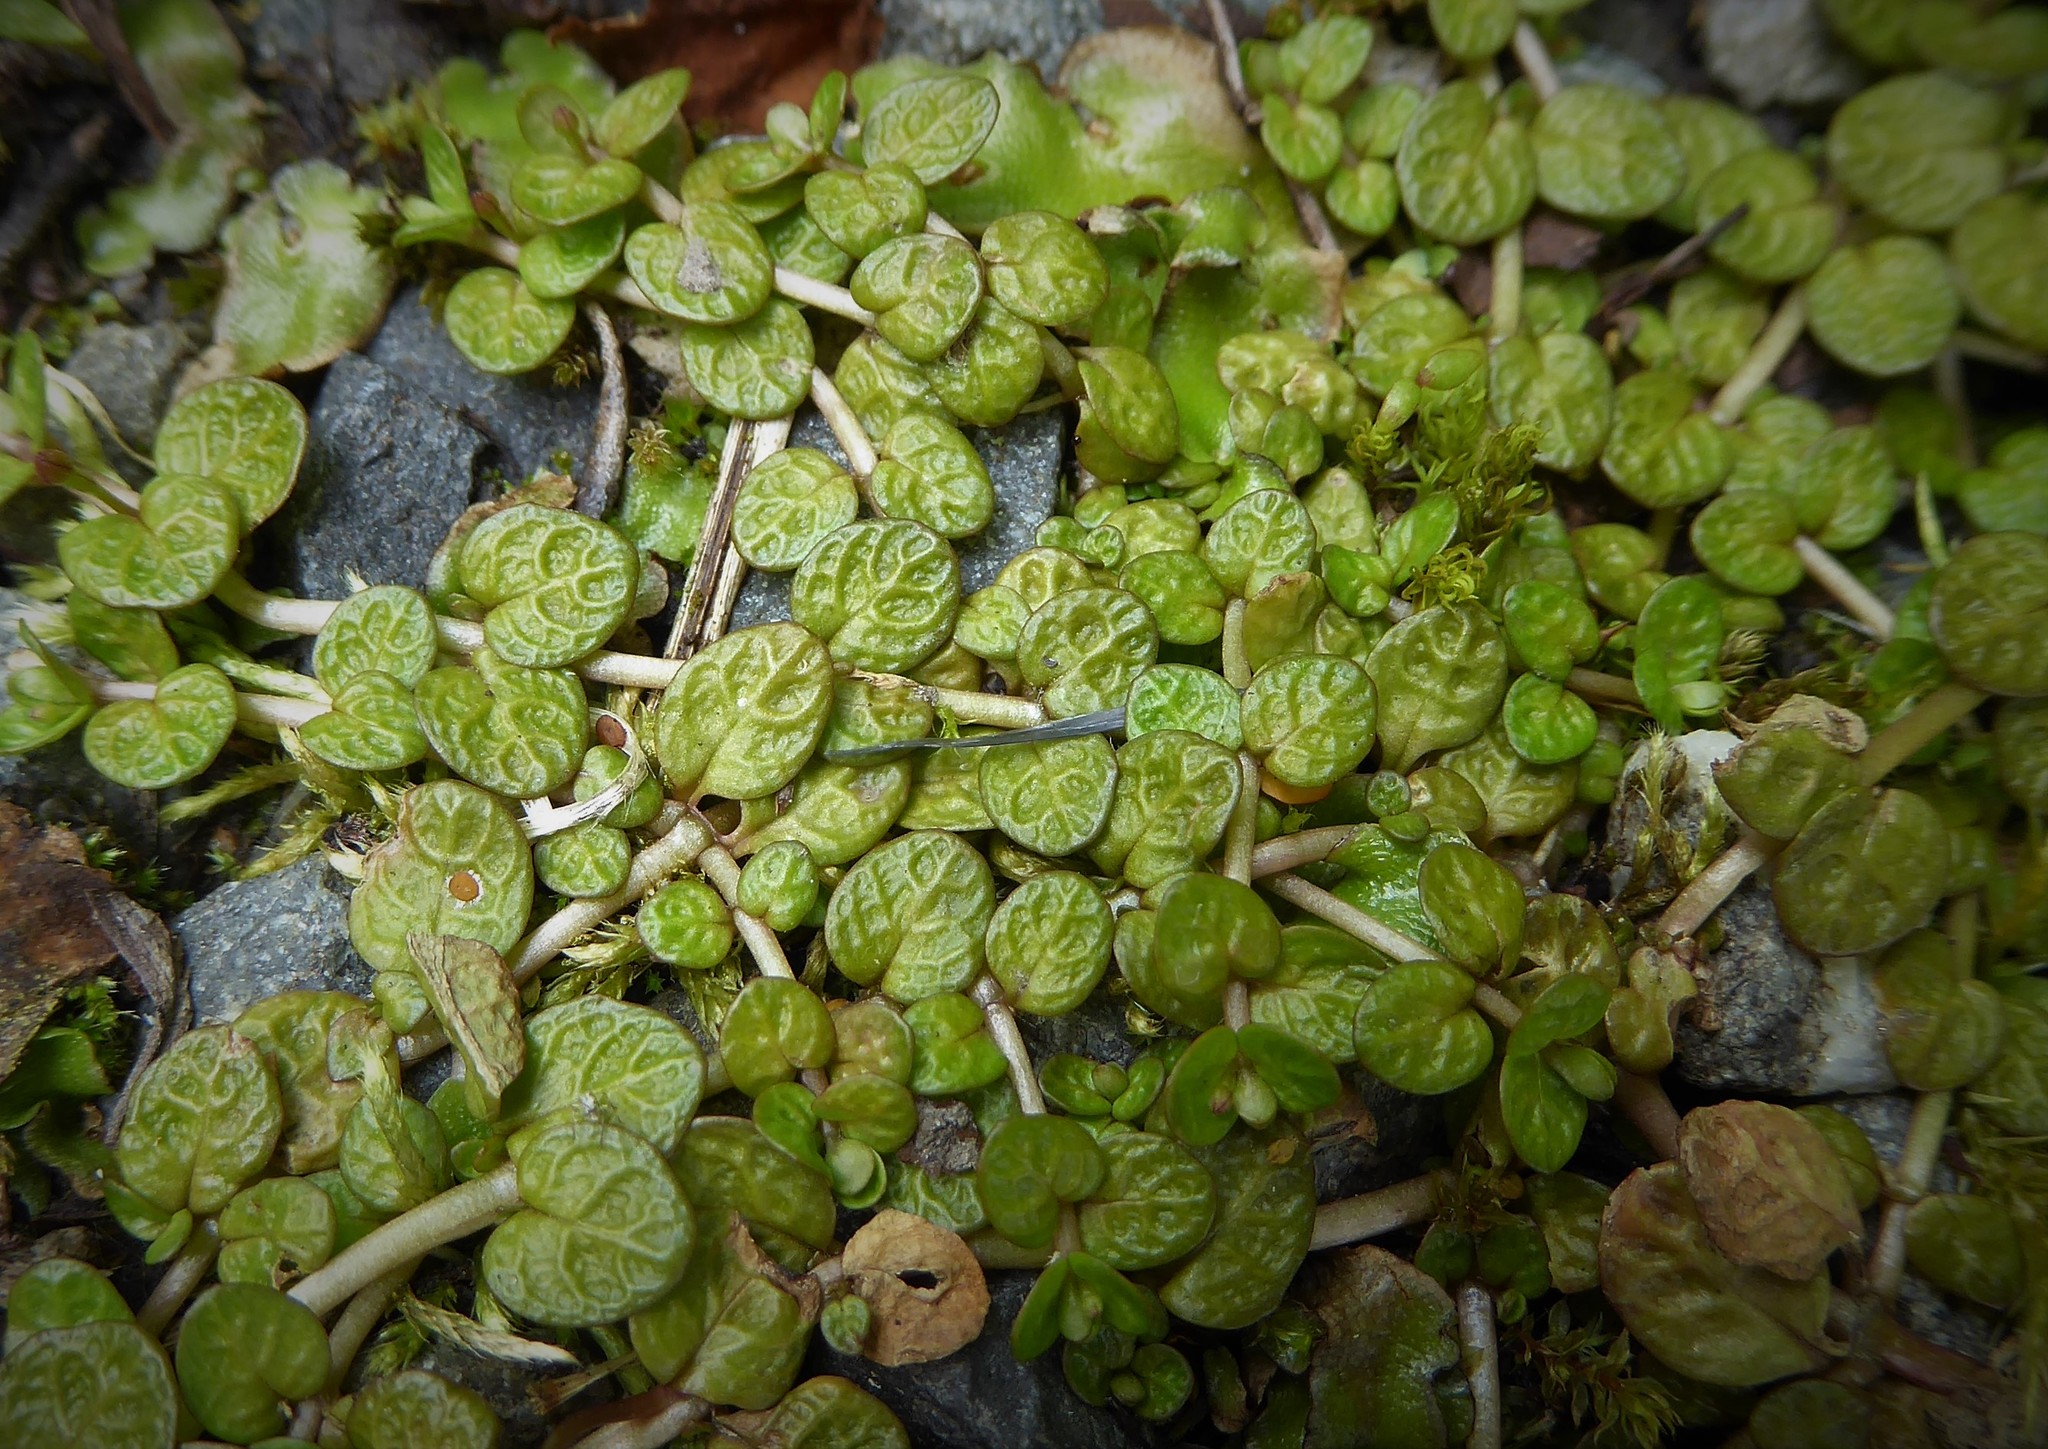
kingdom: Plantae
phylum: Tracheophyta
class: Magnoliopsida
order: Myrtales
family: Onagraceae
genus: Epilobium
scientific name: Epilobium komarovianum
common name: Bronzy willowherb
